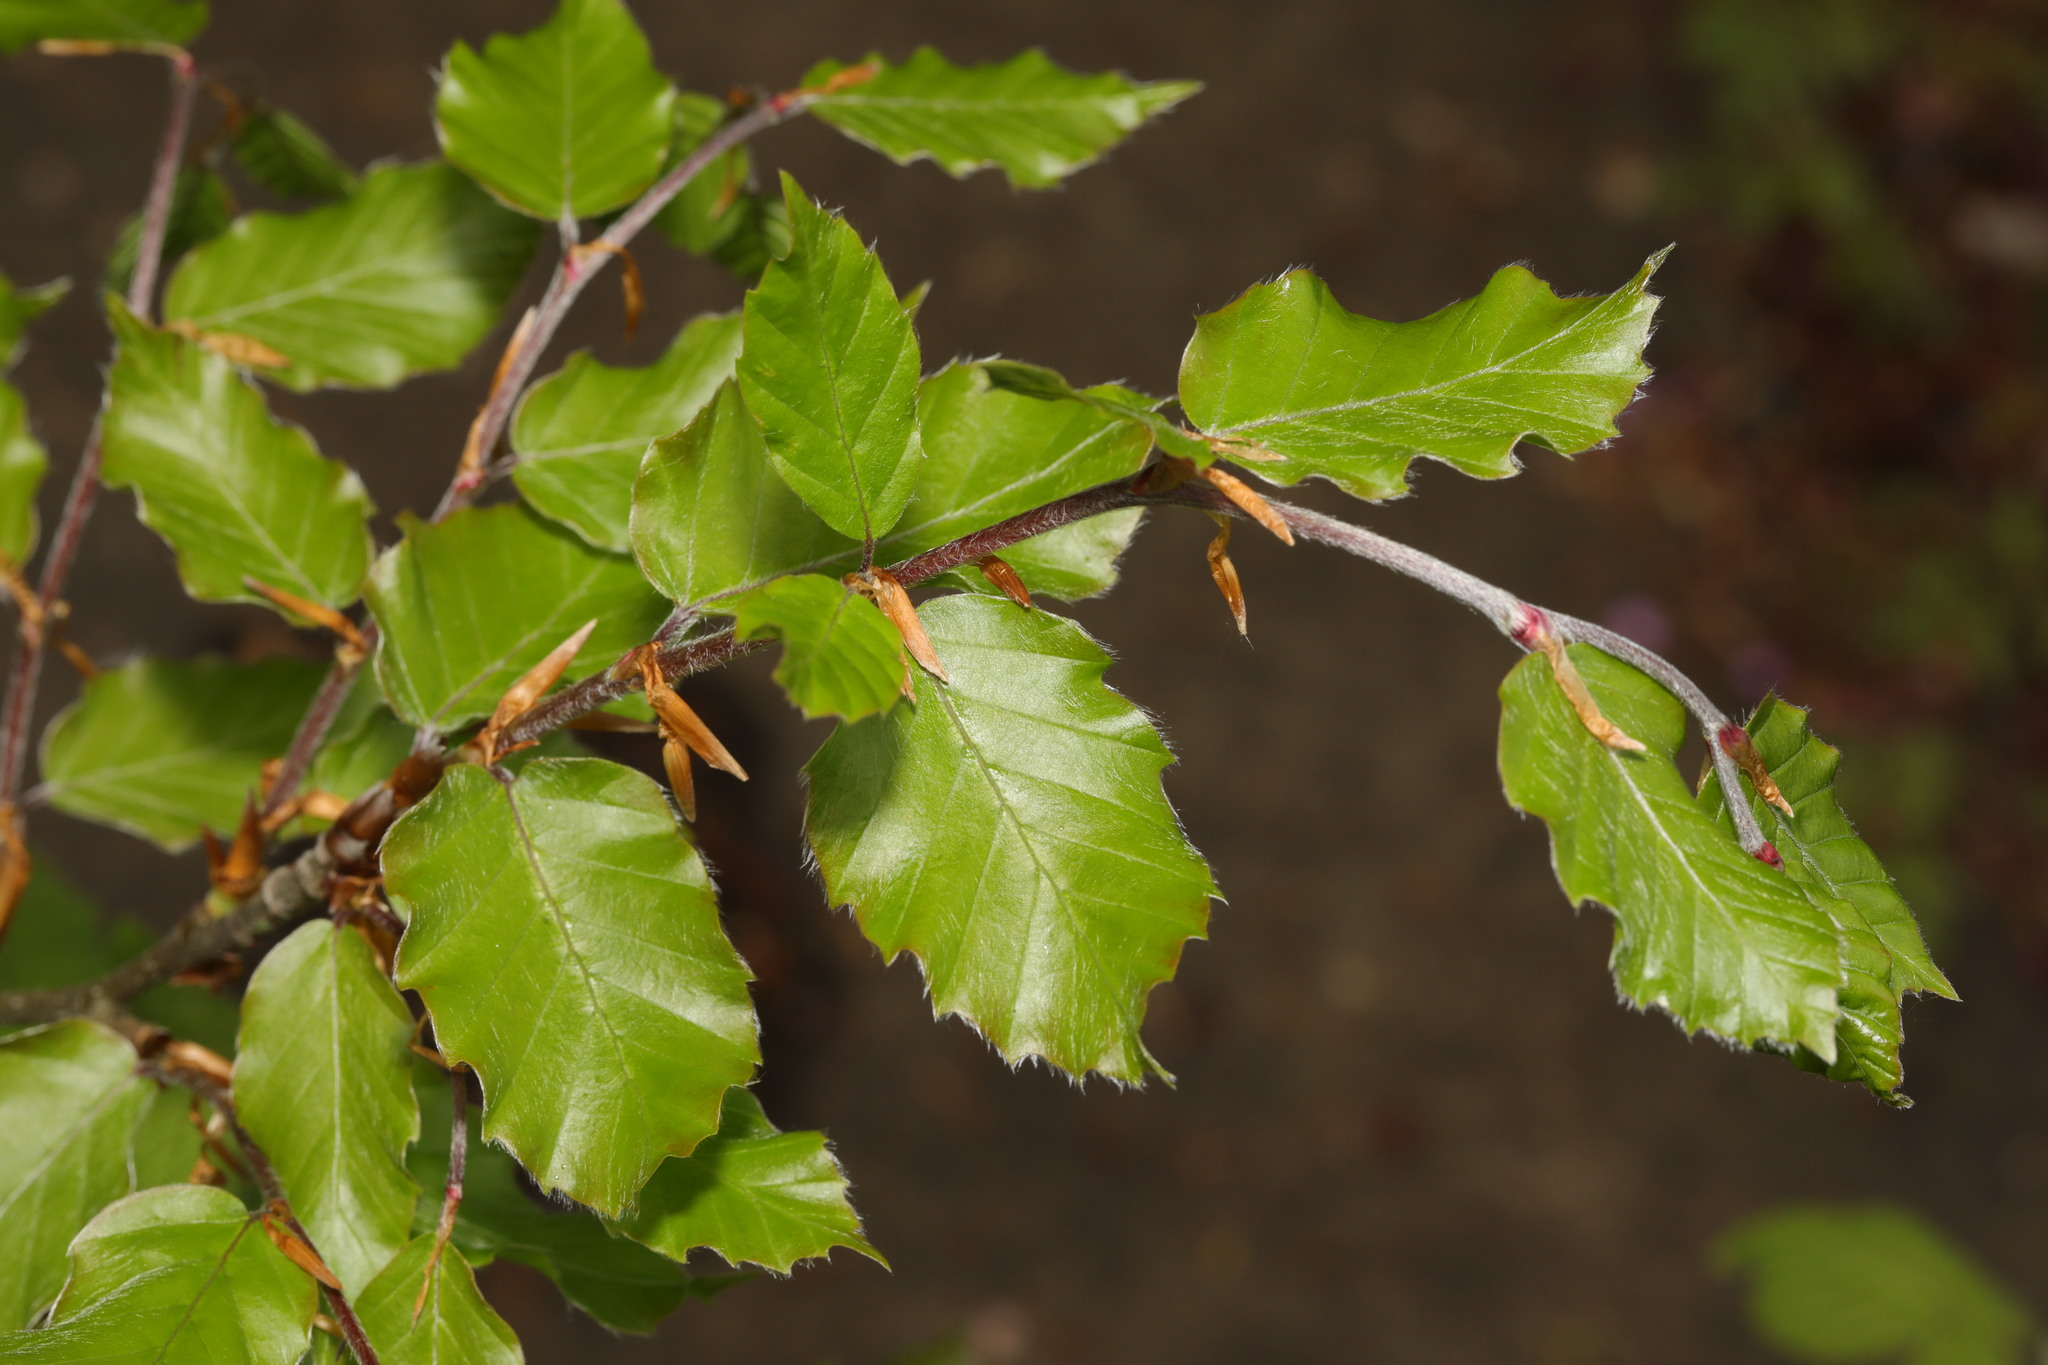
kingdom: Plantae
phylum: Tracheophyta
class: Magnoliopsida
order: Fagales
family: Fagaceae
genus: Fagus
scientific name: Fagus sylvatica
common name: Beech
